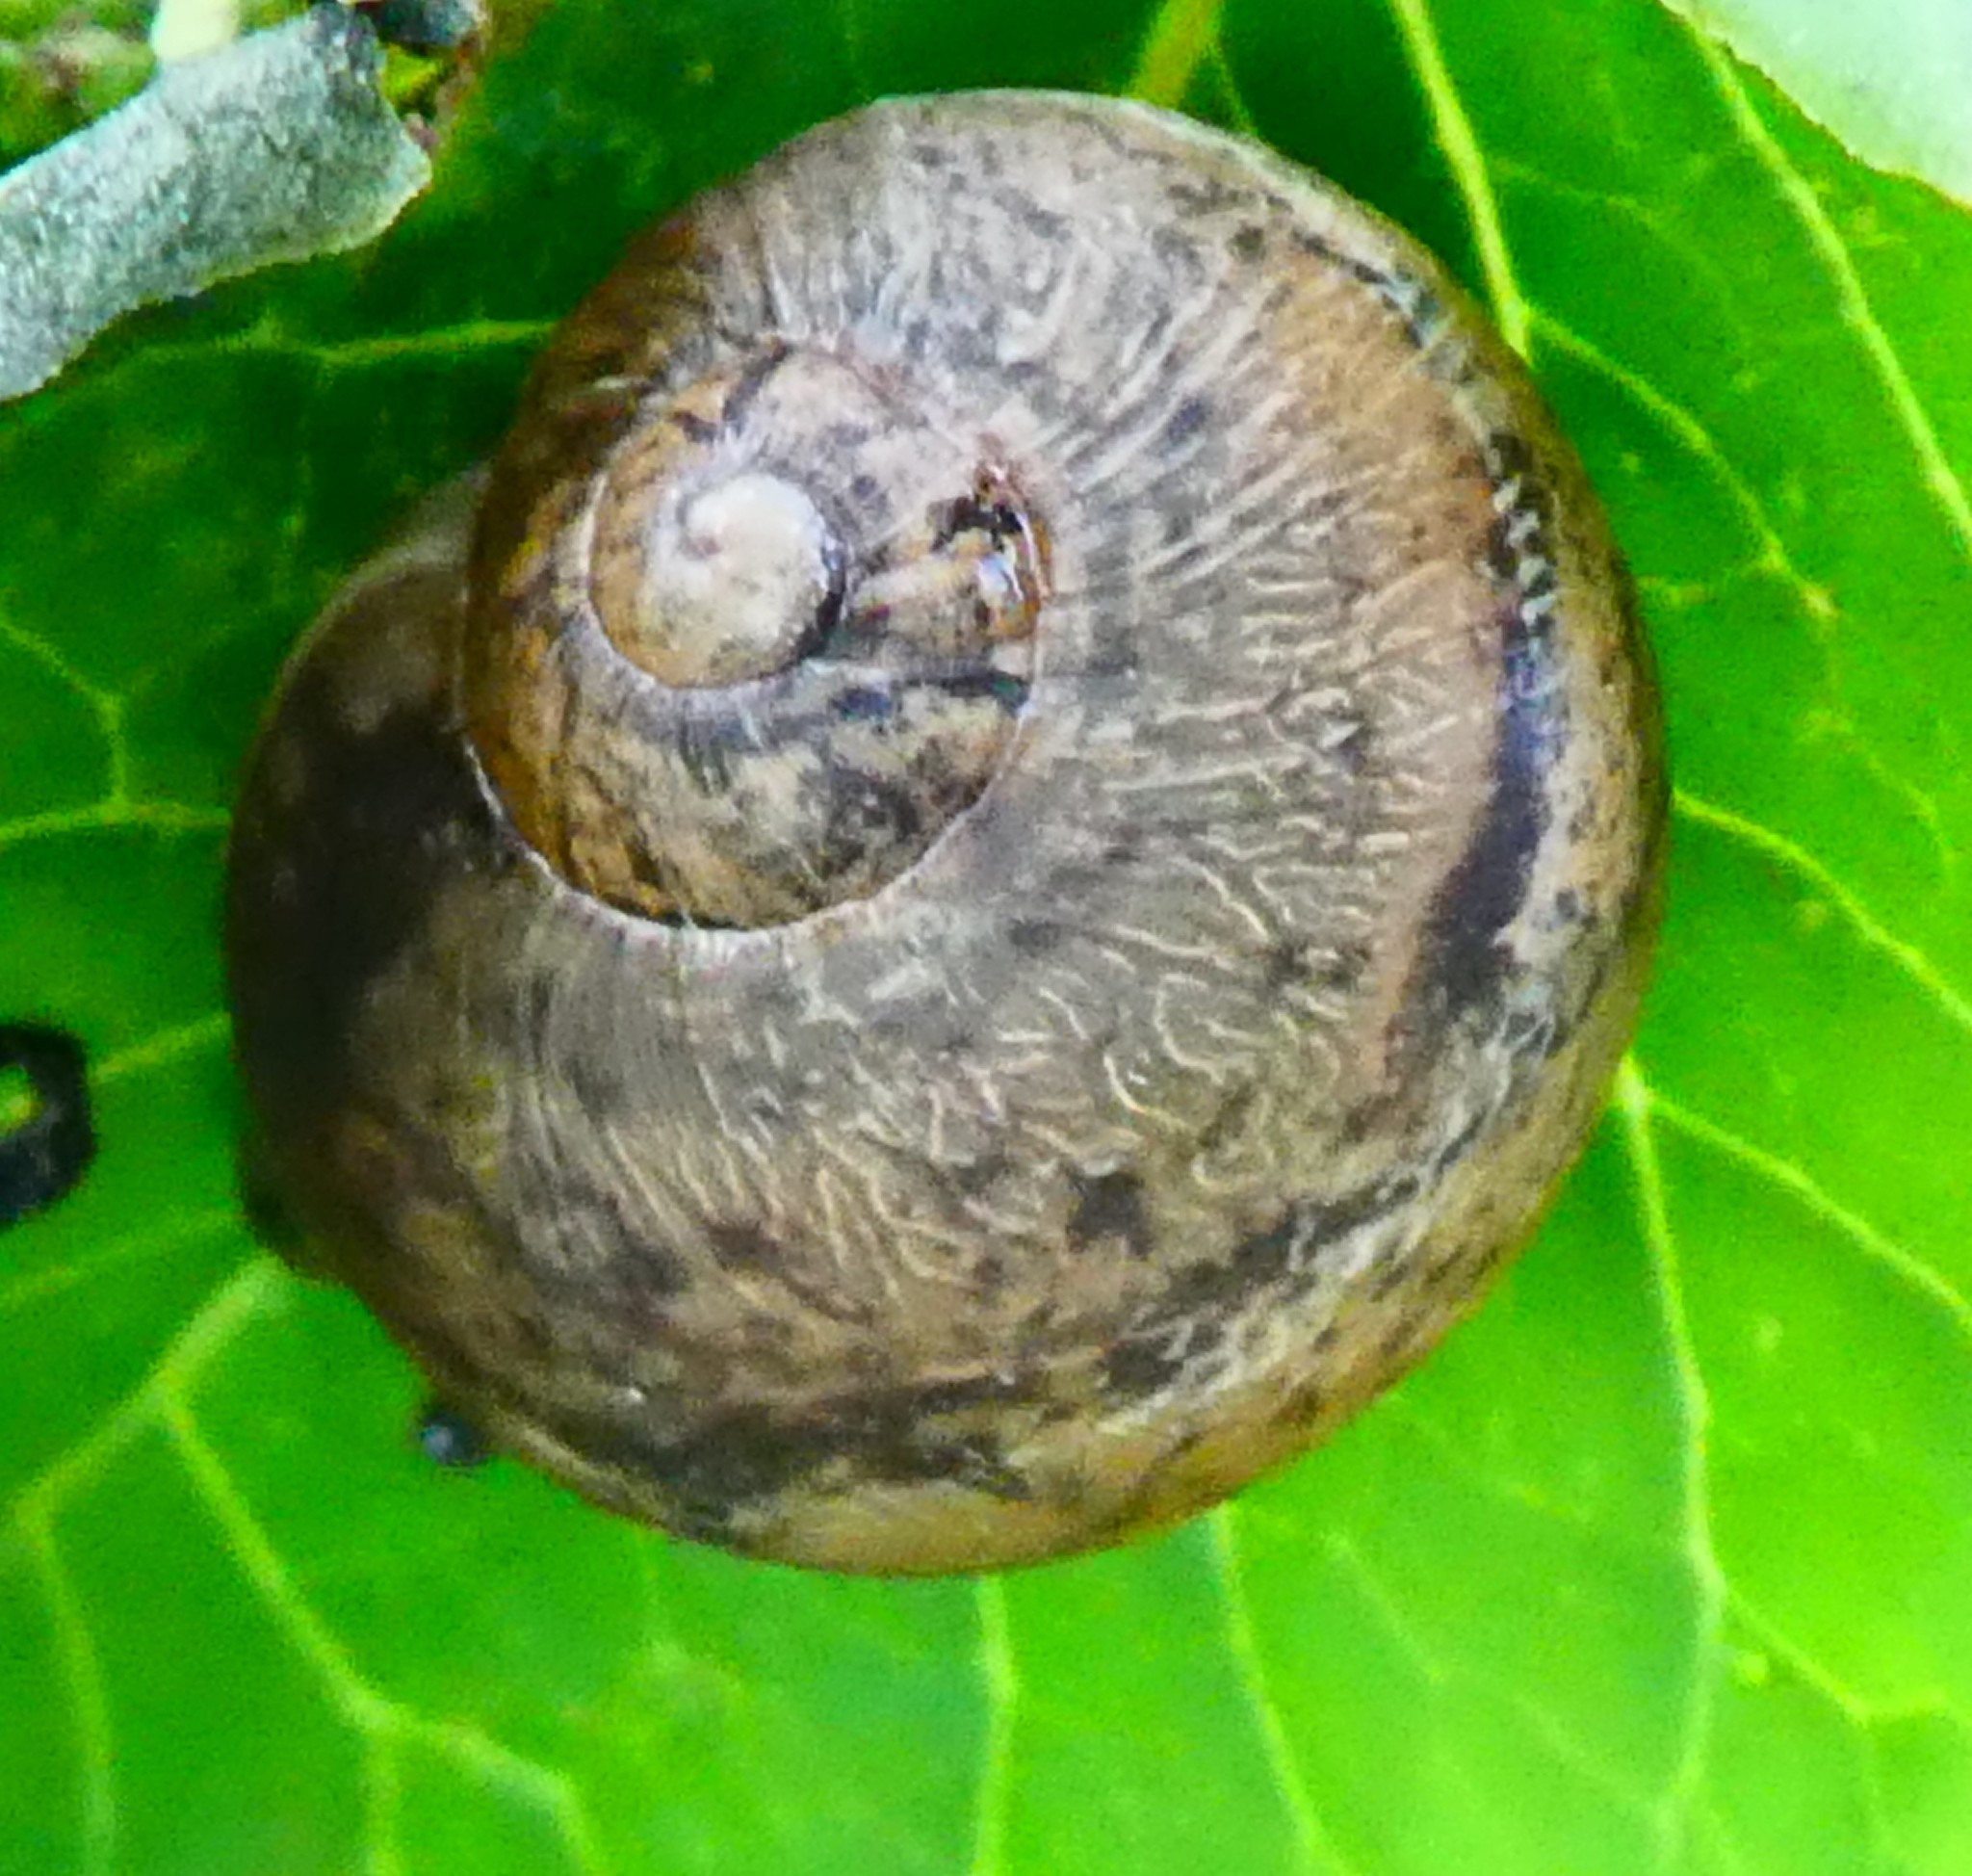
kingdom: Animalia
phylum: Mollusca
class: Gastropoda
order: Stylommatophora
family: Helicidae
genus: Cornu
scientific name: Cornu aspersum
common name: Brown garden snail
